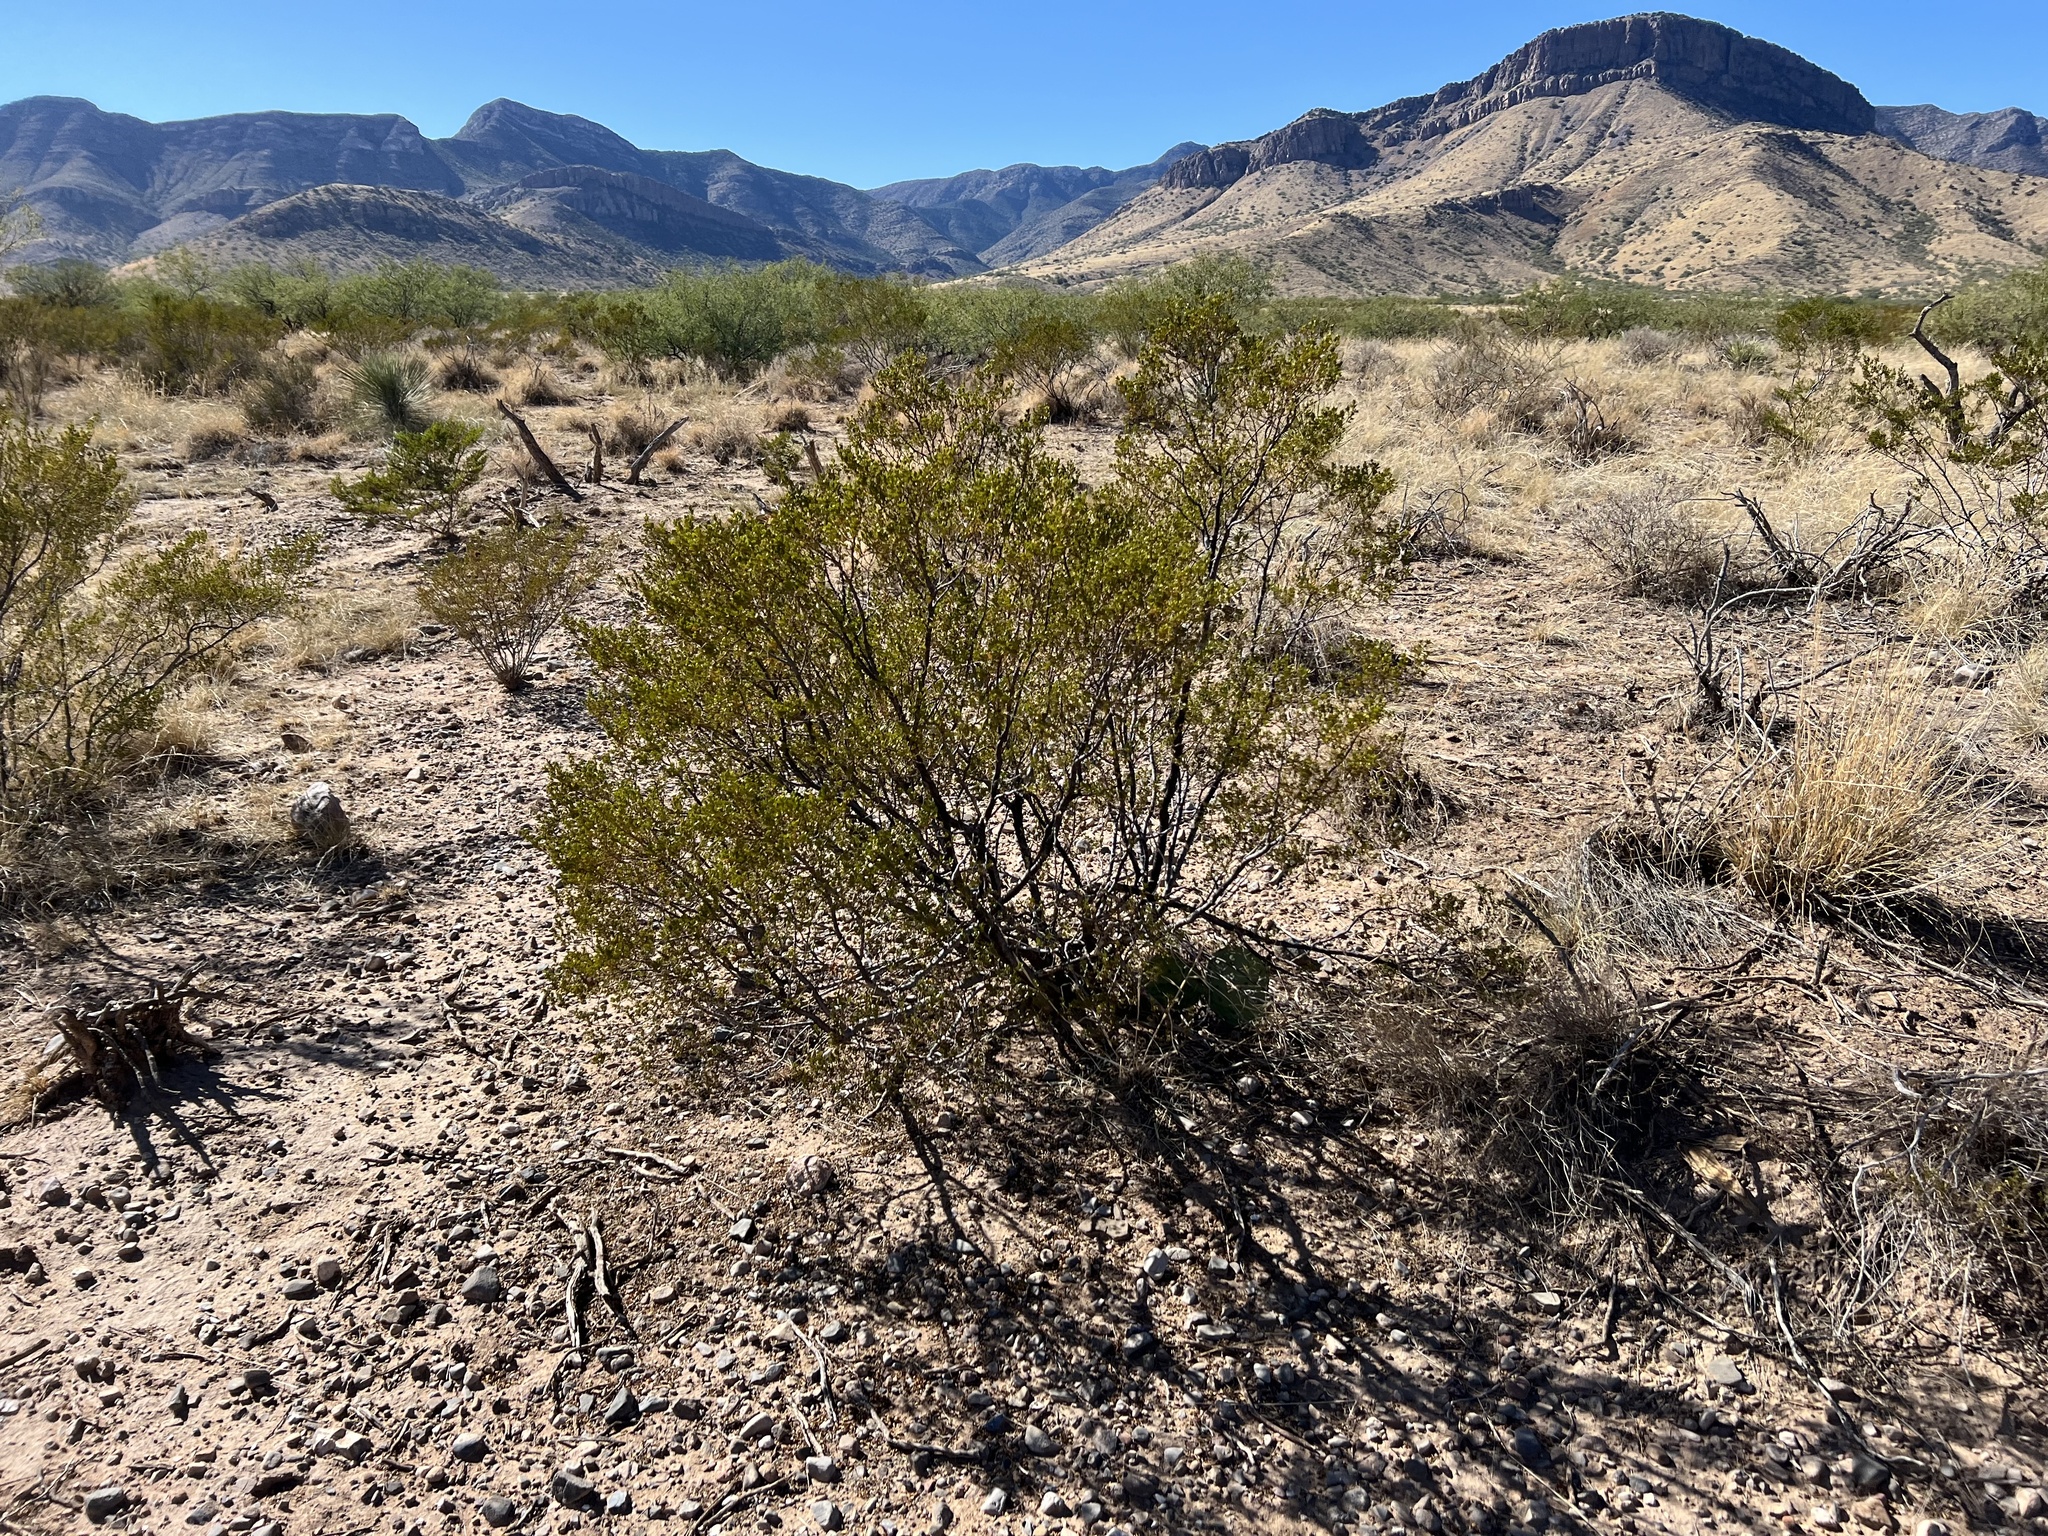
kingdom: Plantae
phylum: Tracheophyta
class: Magnoliopsida
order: Zygophyllales
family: Zygophyllaceae
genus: Larrea
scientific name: Larrea tridentata
